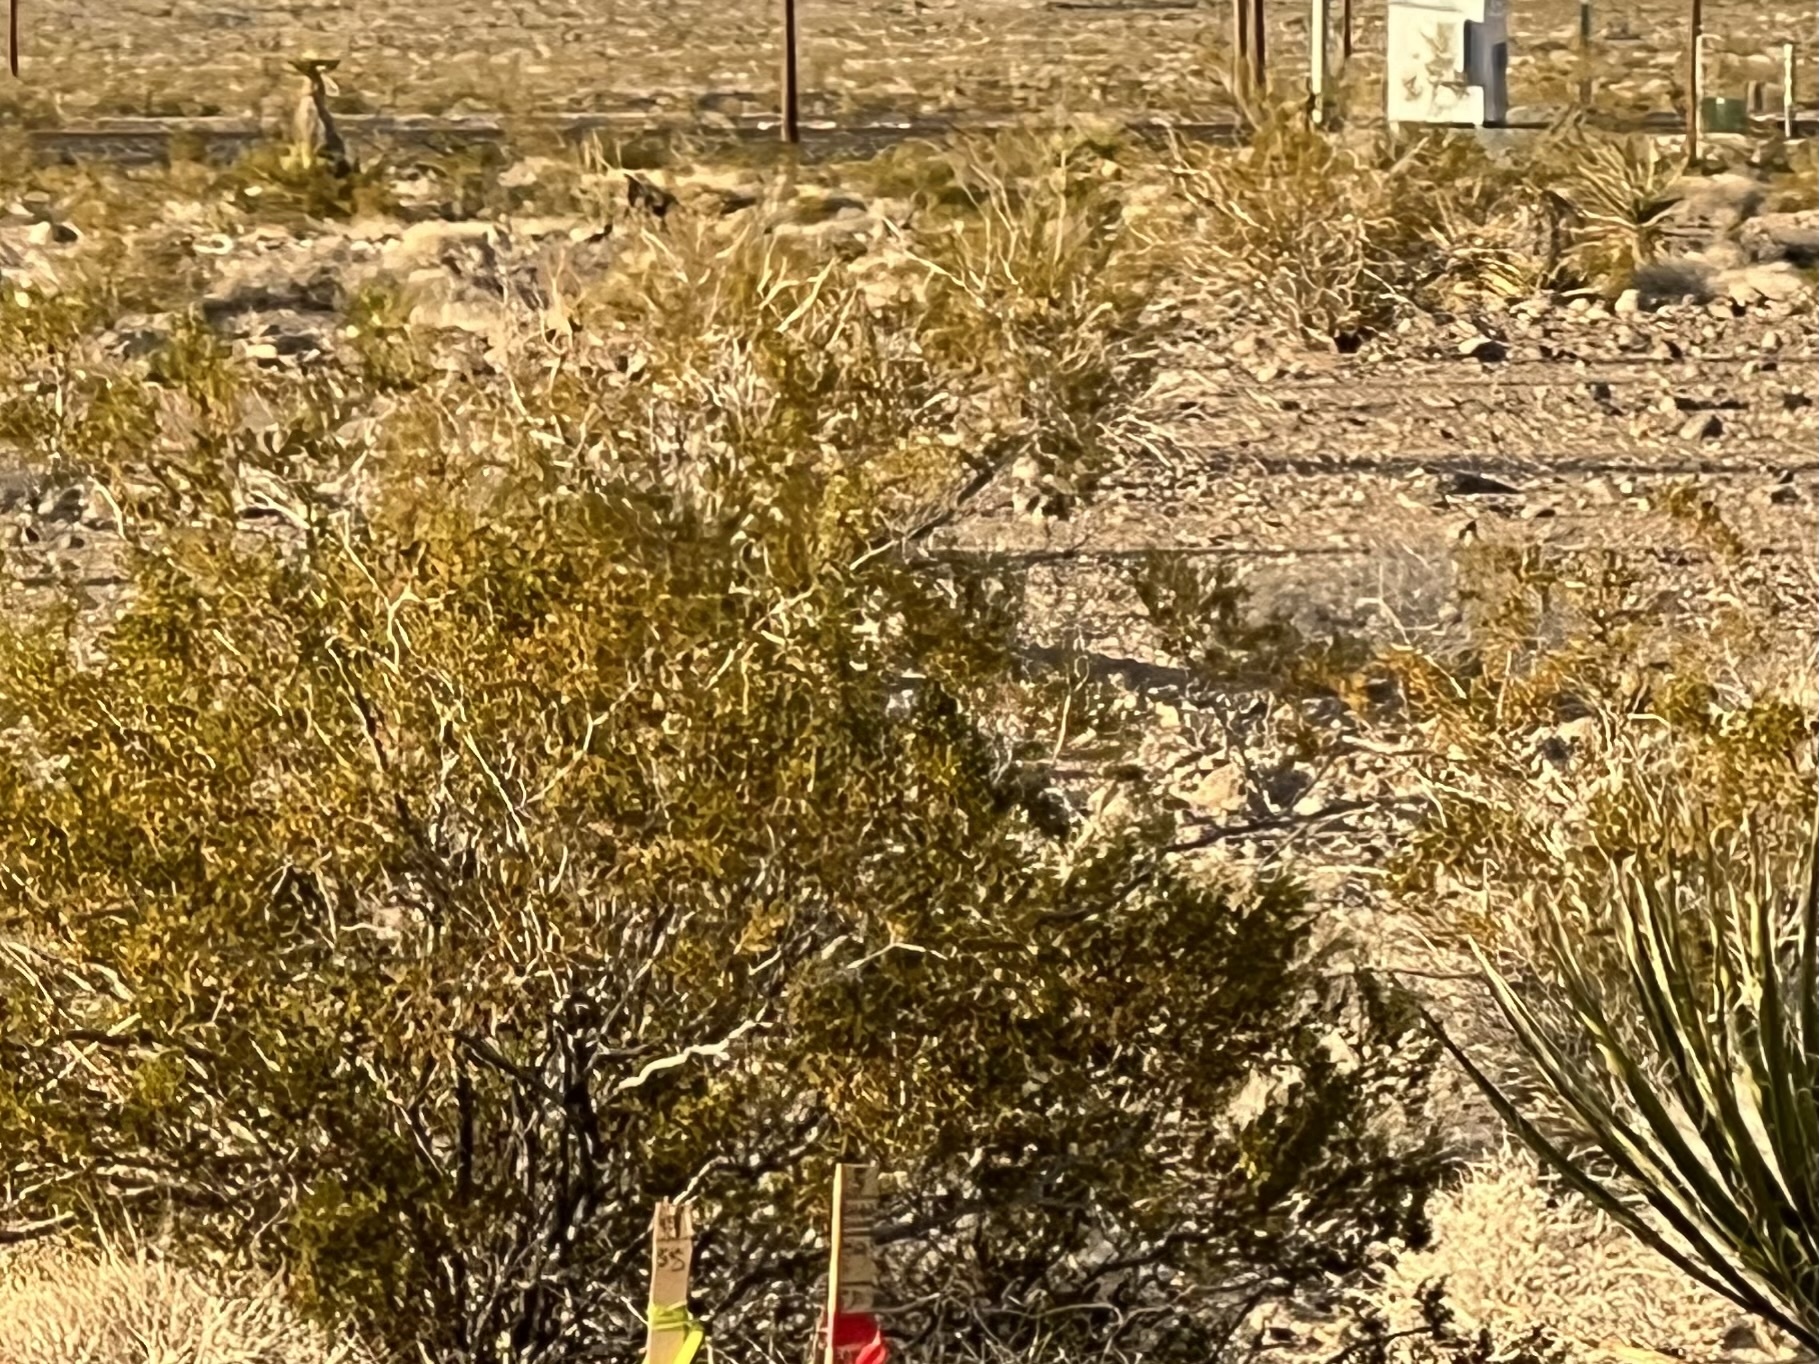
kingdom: Plantae
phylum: Tracheophyta
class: Magnoliopsida
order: Zygophyllales
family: Zygophyllaceae
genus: Larrea
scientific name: Larrea tridentata
